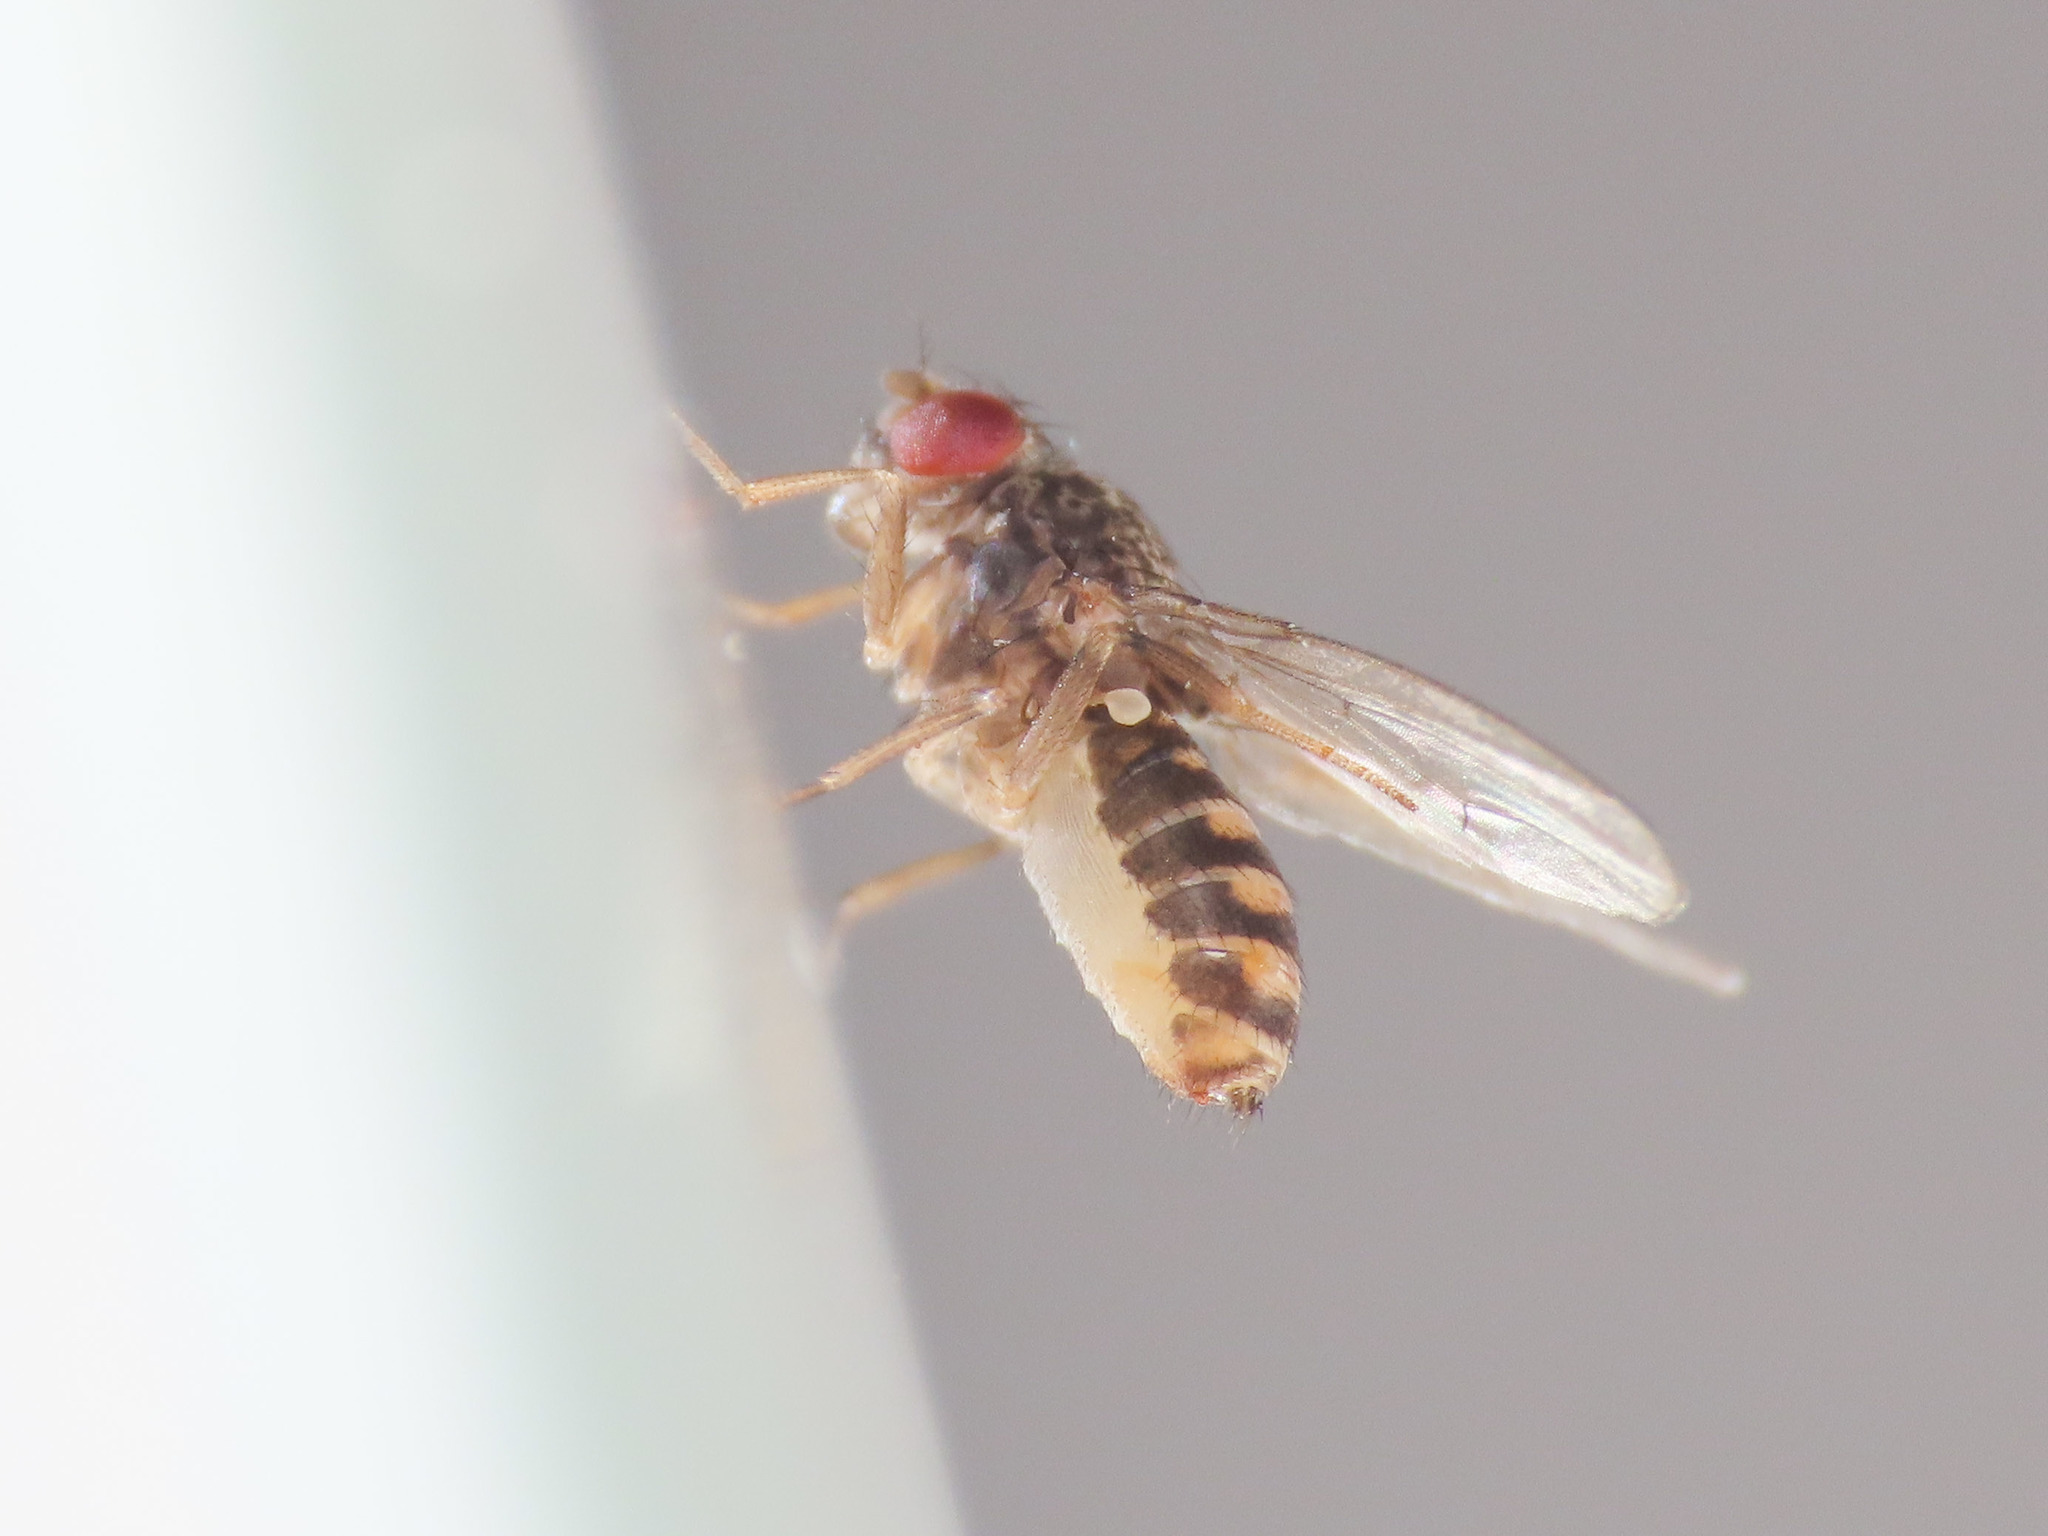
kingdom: Animalia
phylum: Arthropoda
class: Insecta
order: Diptera
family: Drosophilidae
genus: Drosophila
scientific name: Drosophila hydei
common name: Pomace fly
